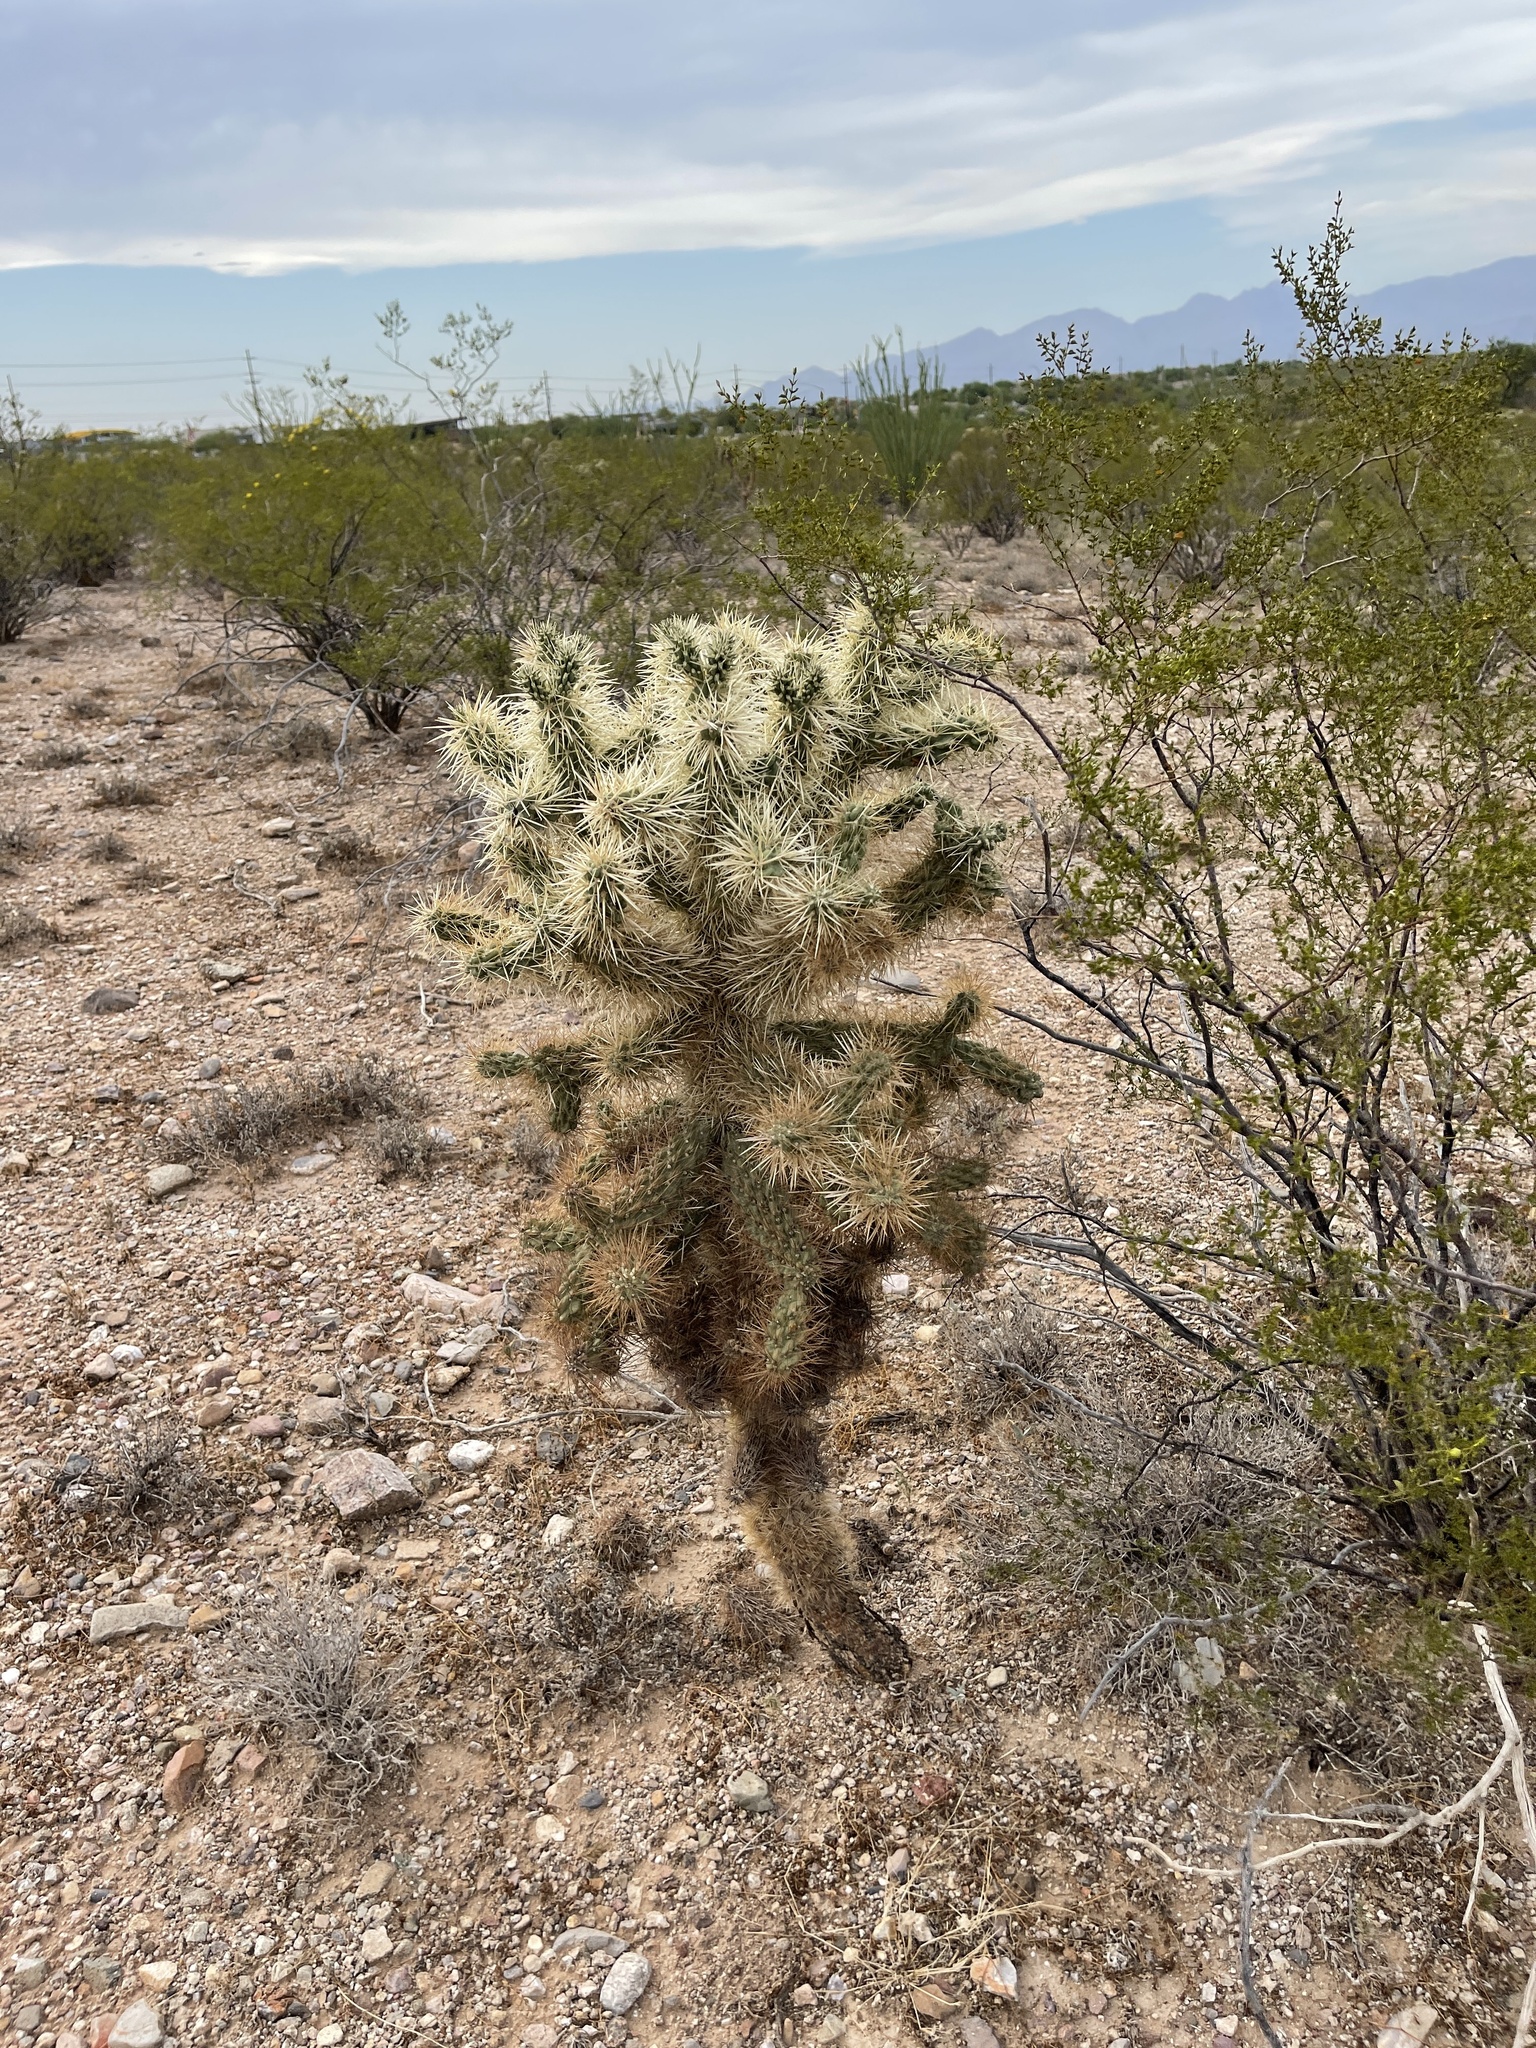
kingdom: Plantae
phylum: Tracheophyta
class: Magnoliopsida
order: Caryophyllales
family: Cactaceae
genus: Cylindropuntia
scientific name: Cylindropuntia fulgida
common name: Jumping cholla
